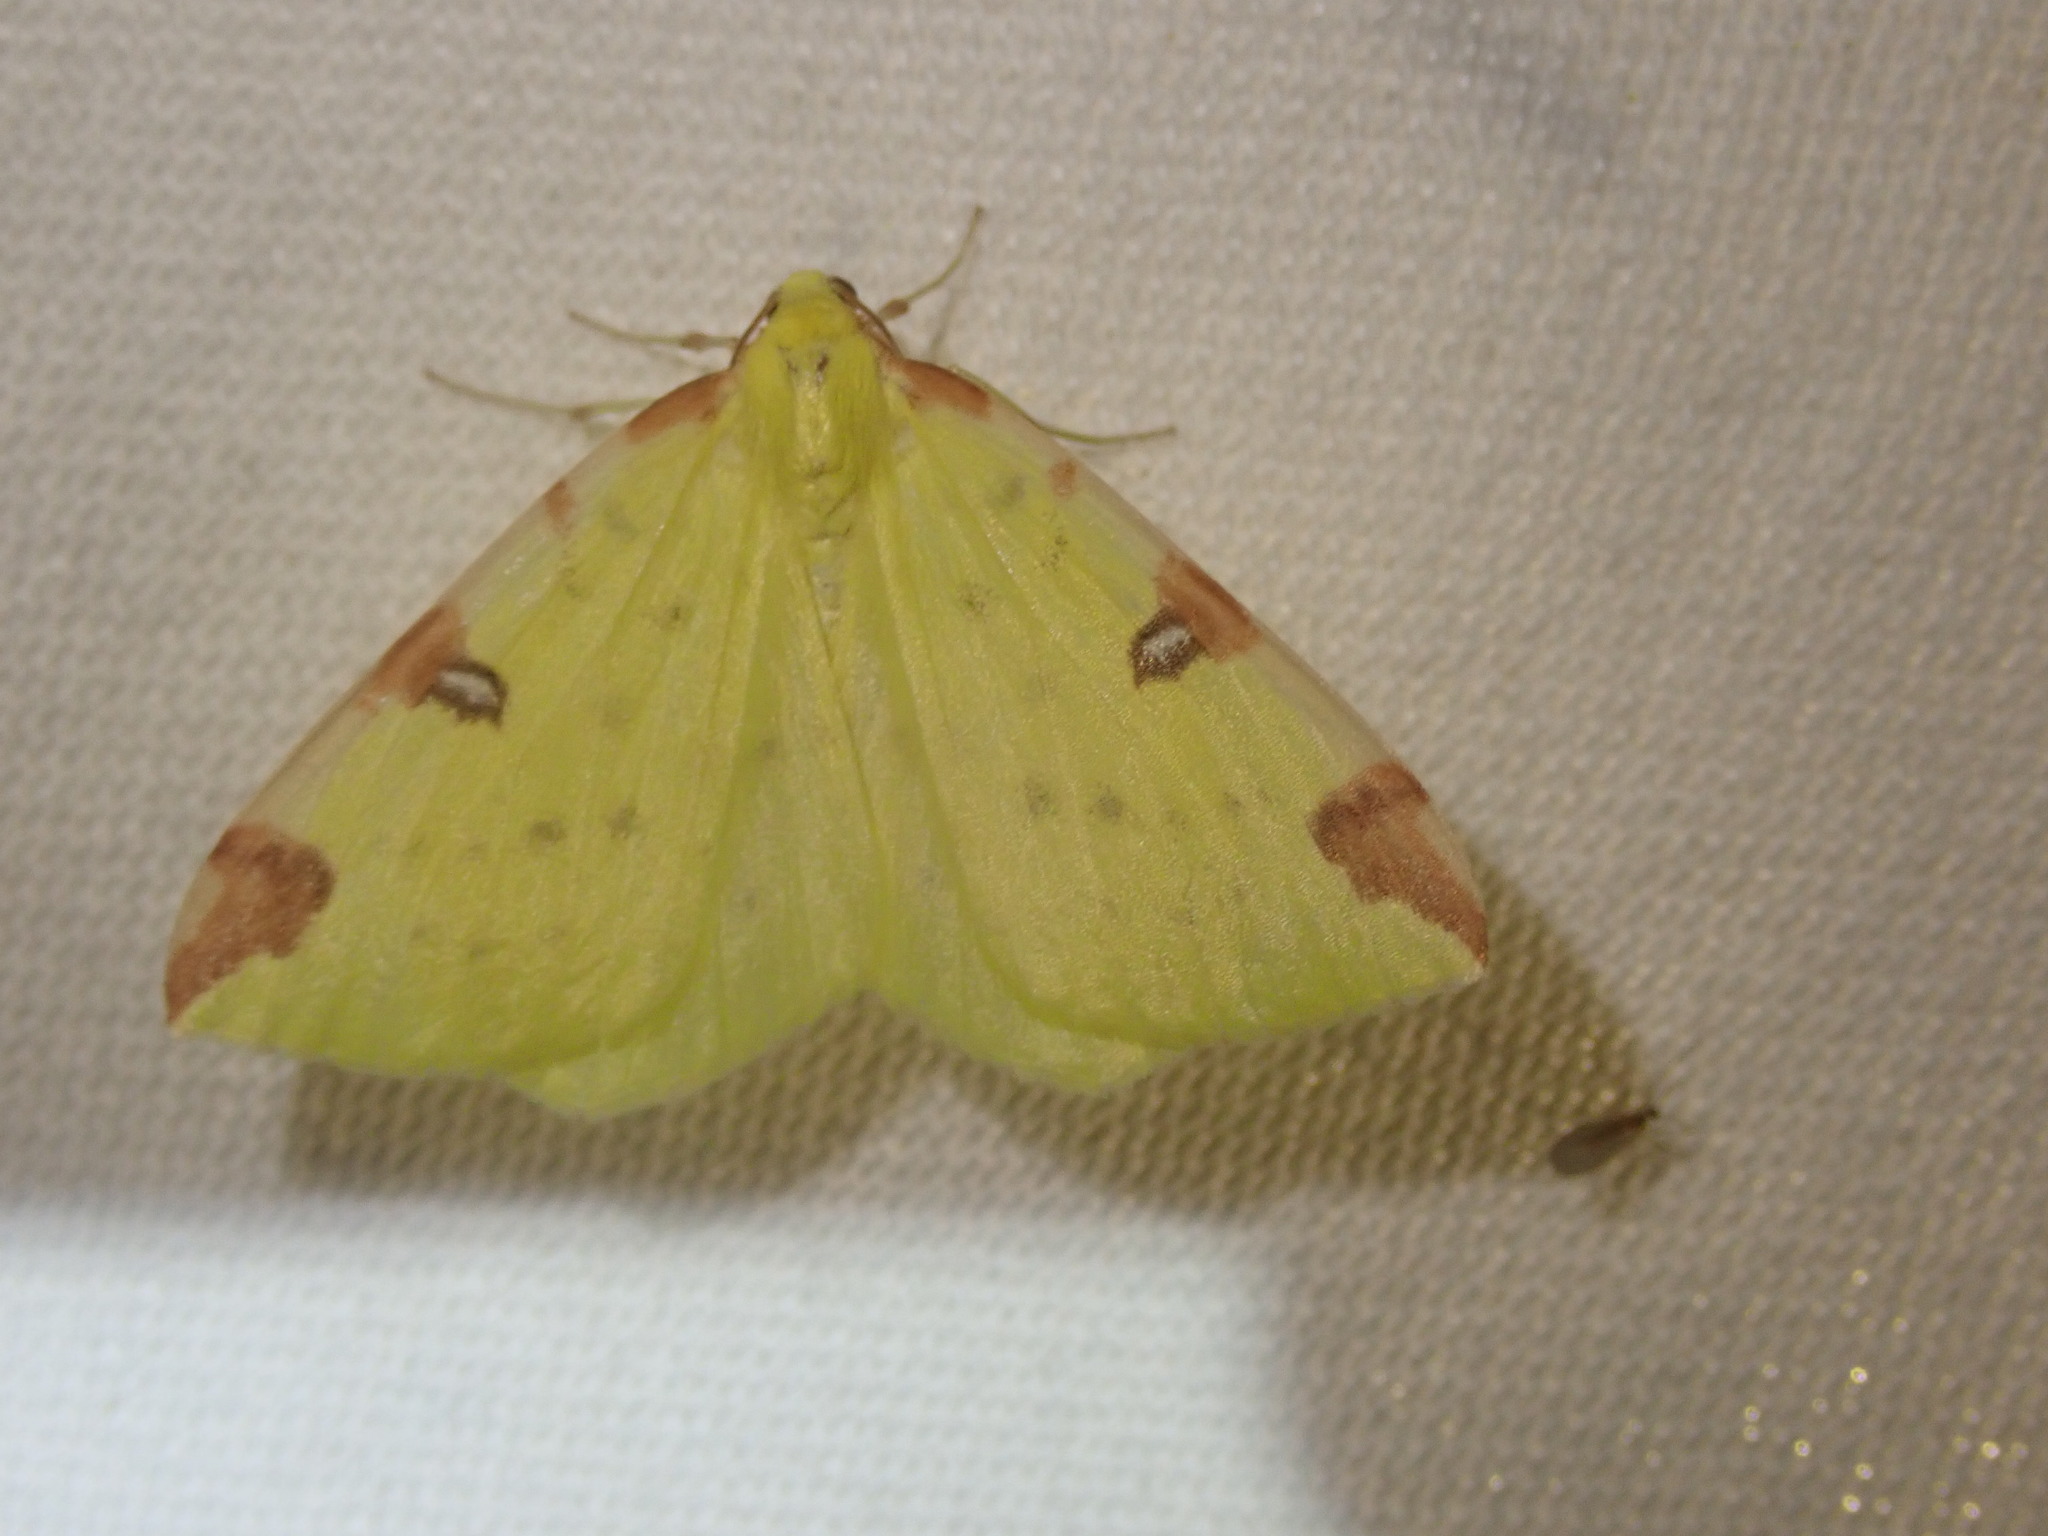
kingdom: Animalia
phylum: Arthropoda
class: Insecta
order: Lepidoptera
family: Geometridae
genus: Opisthograptis
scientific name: Opisthograptis luteolata
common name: Brimstone moth
